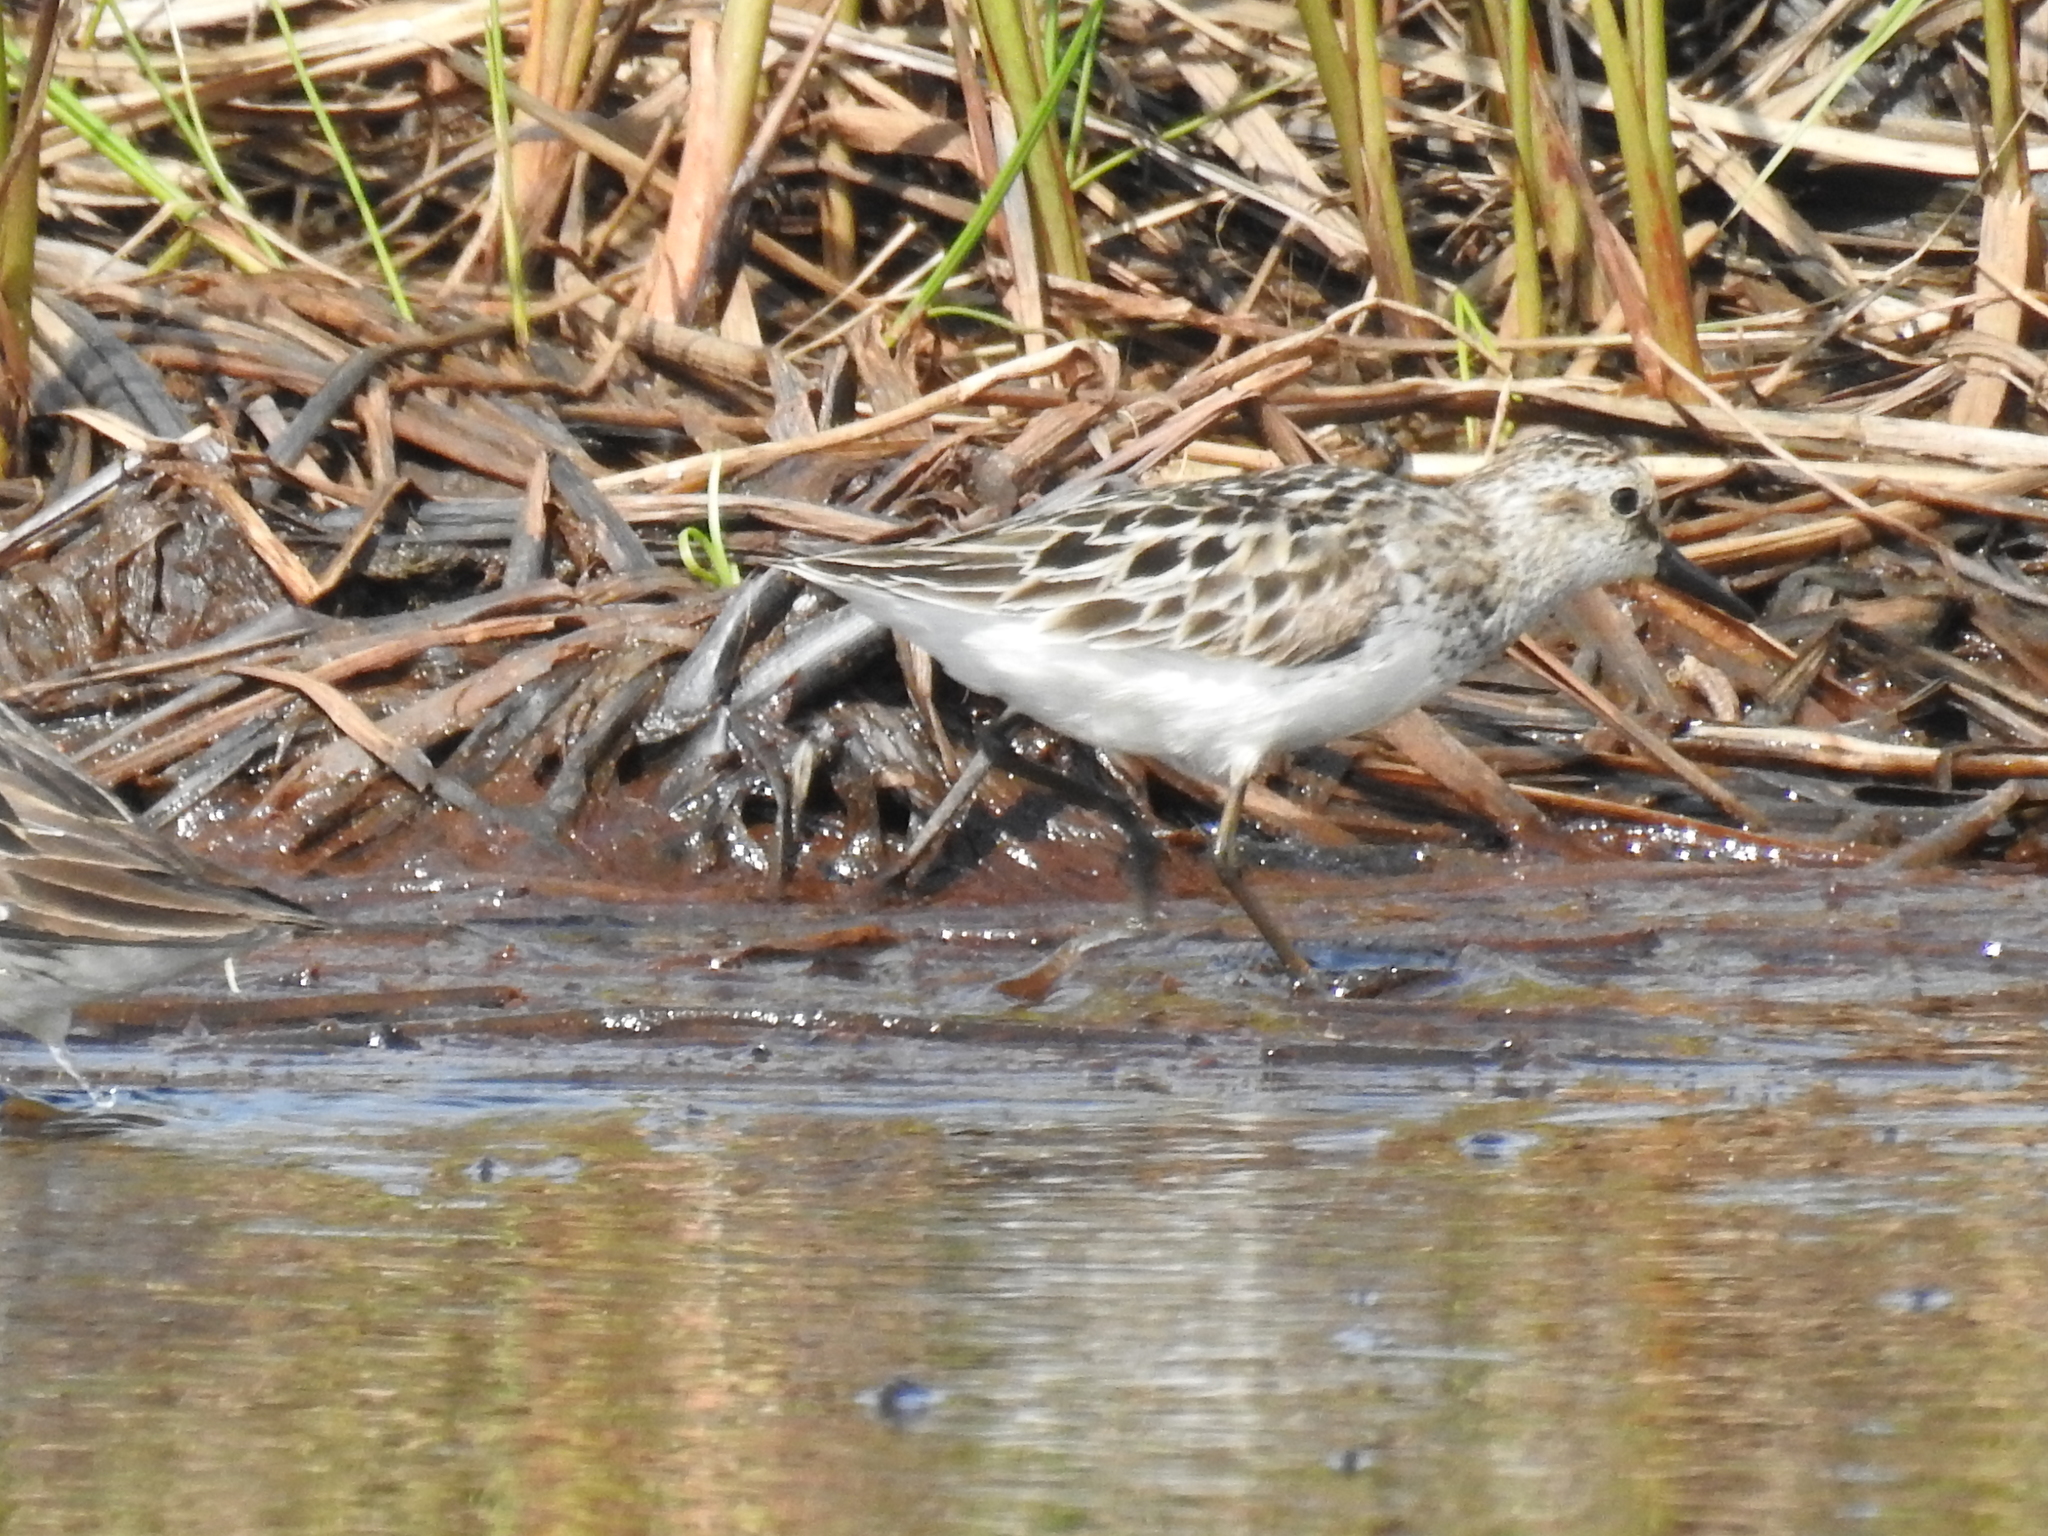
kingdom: Animalia
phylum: Chordata
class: Aves
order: Charadriiformes
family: Scolopacidae
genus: Calidris
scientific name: Calidris pusilla
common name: Semipalmated sandpiper
